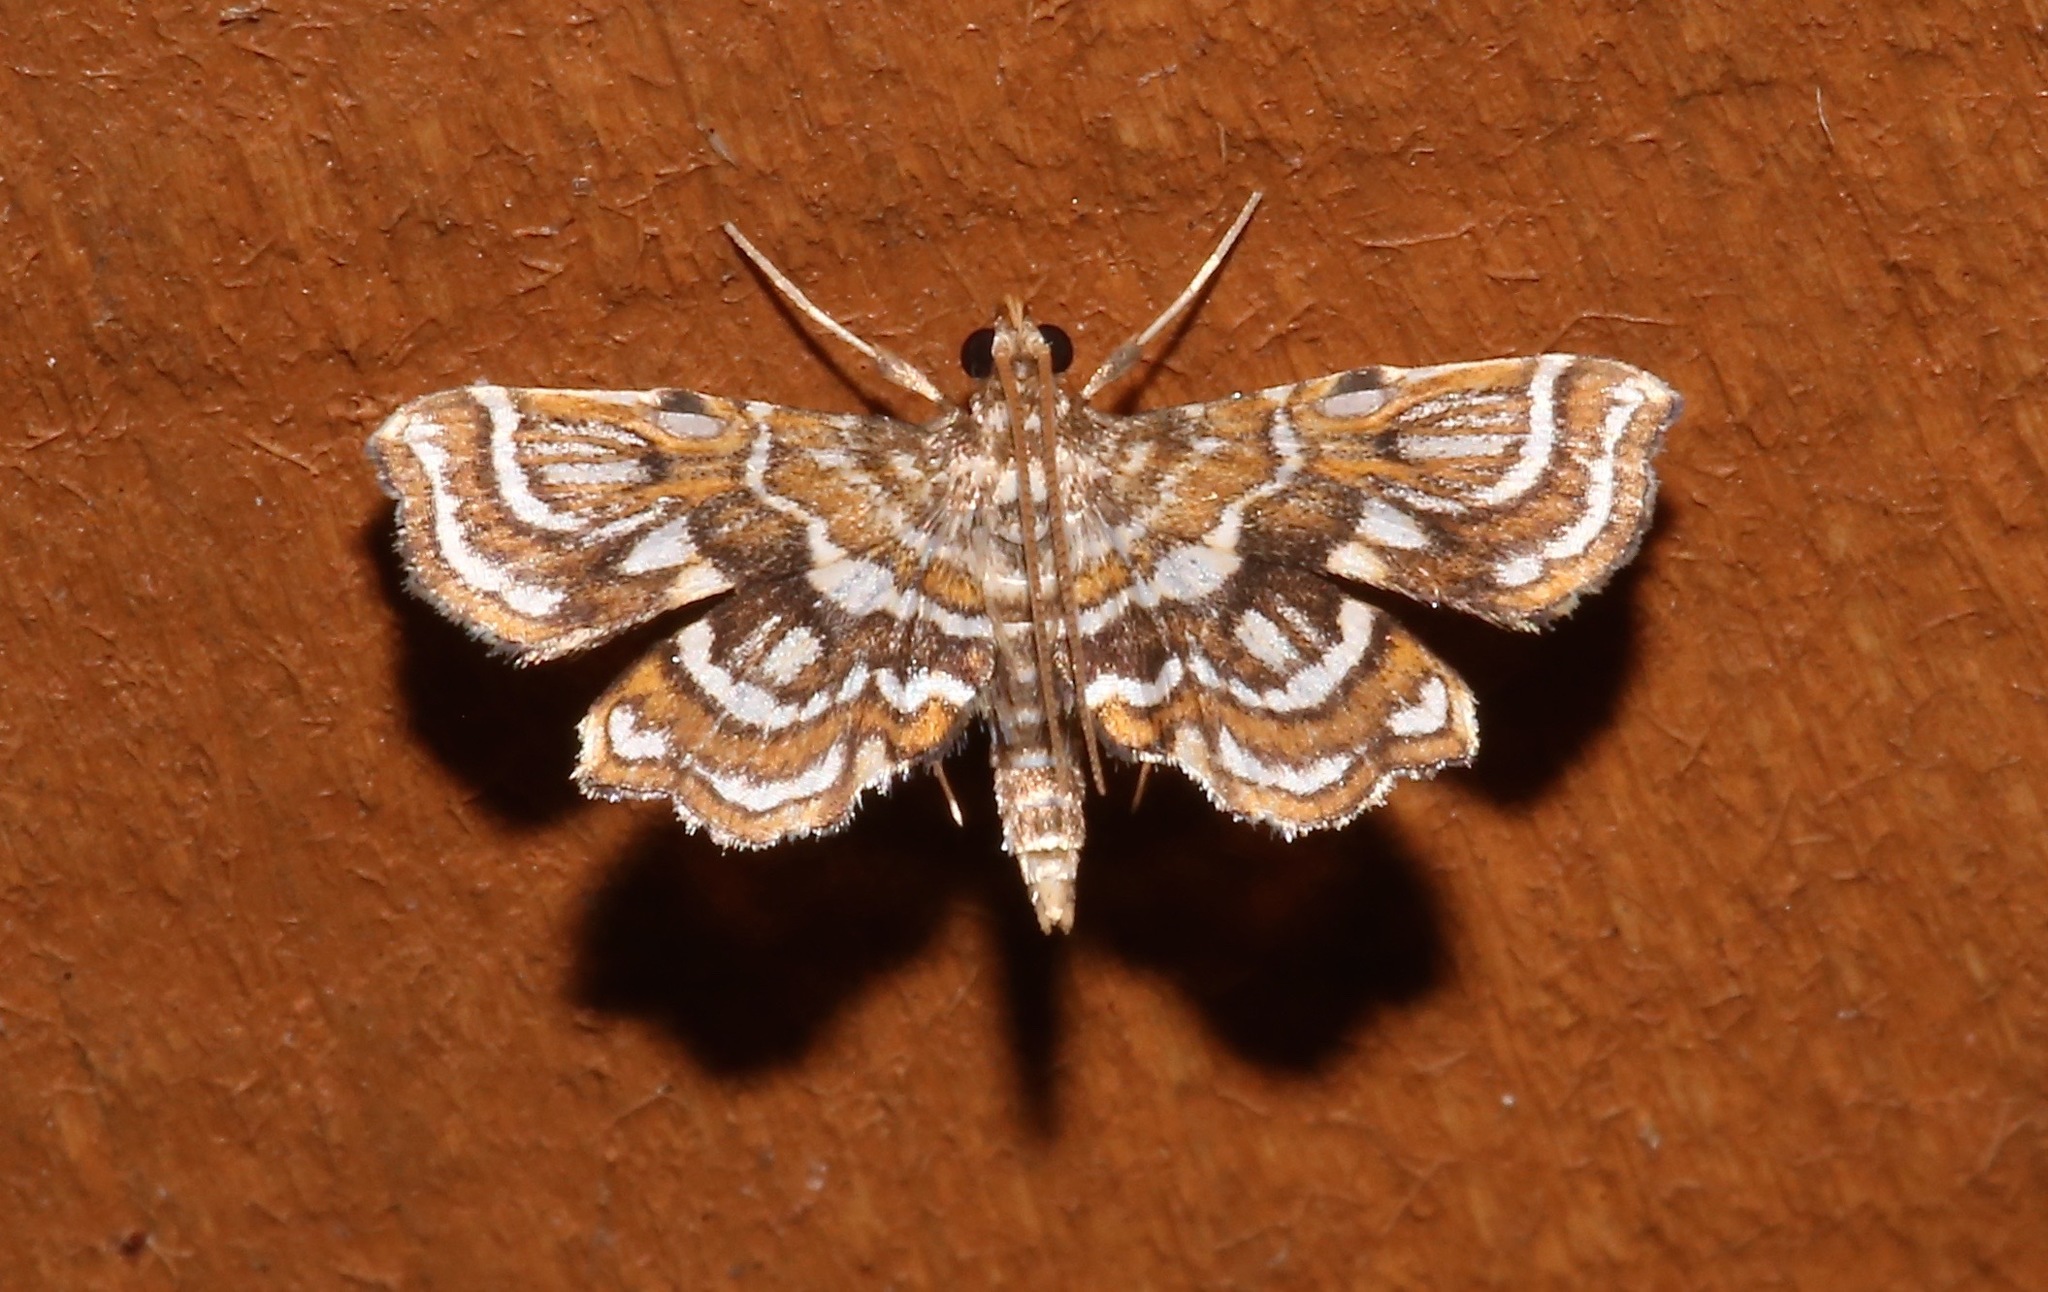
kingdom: Animalia
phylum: Arthropoda
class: Insecta
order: Lepidoptera
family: Pyralidae
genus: Undulambia
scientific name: Undulambia polystichalis
